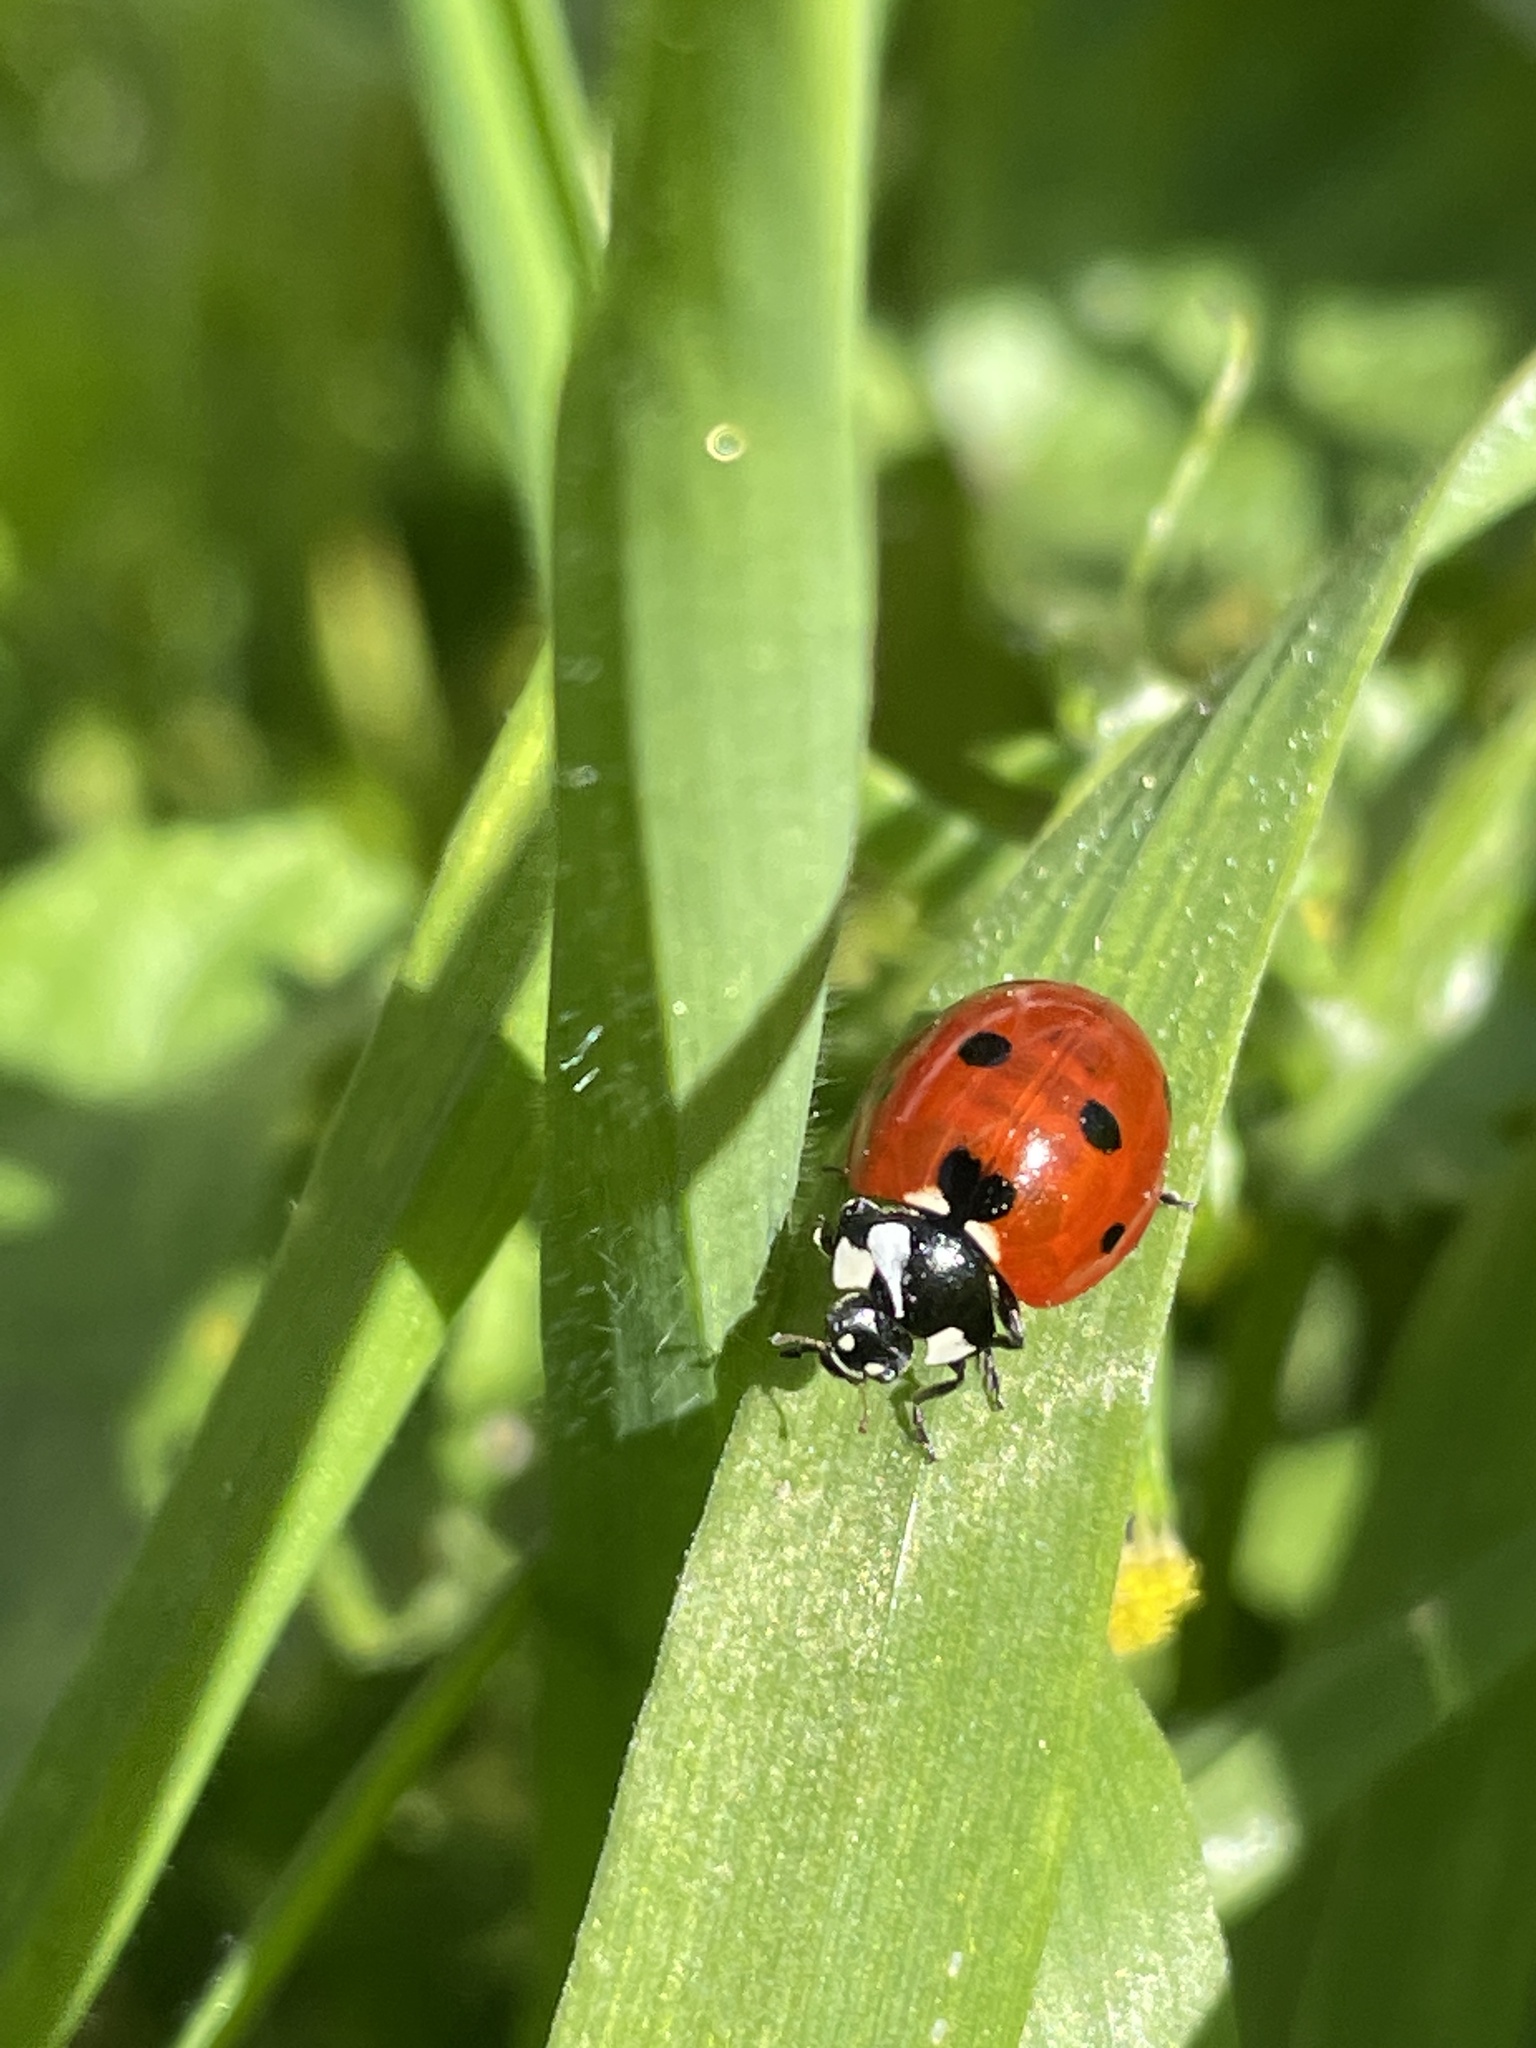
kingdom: Animalia
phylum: Arthropoda
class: Insecta
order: Coleoptera
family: Coccinellidae
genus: Coccinella
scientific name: Coccinella septempunctata
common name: Sevenspotted lady beetle
